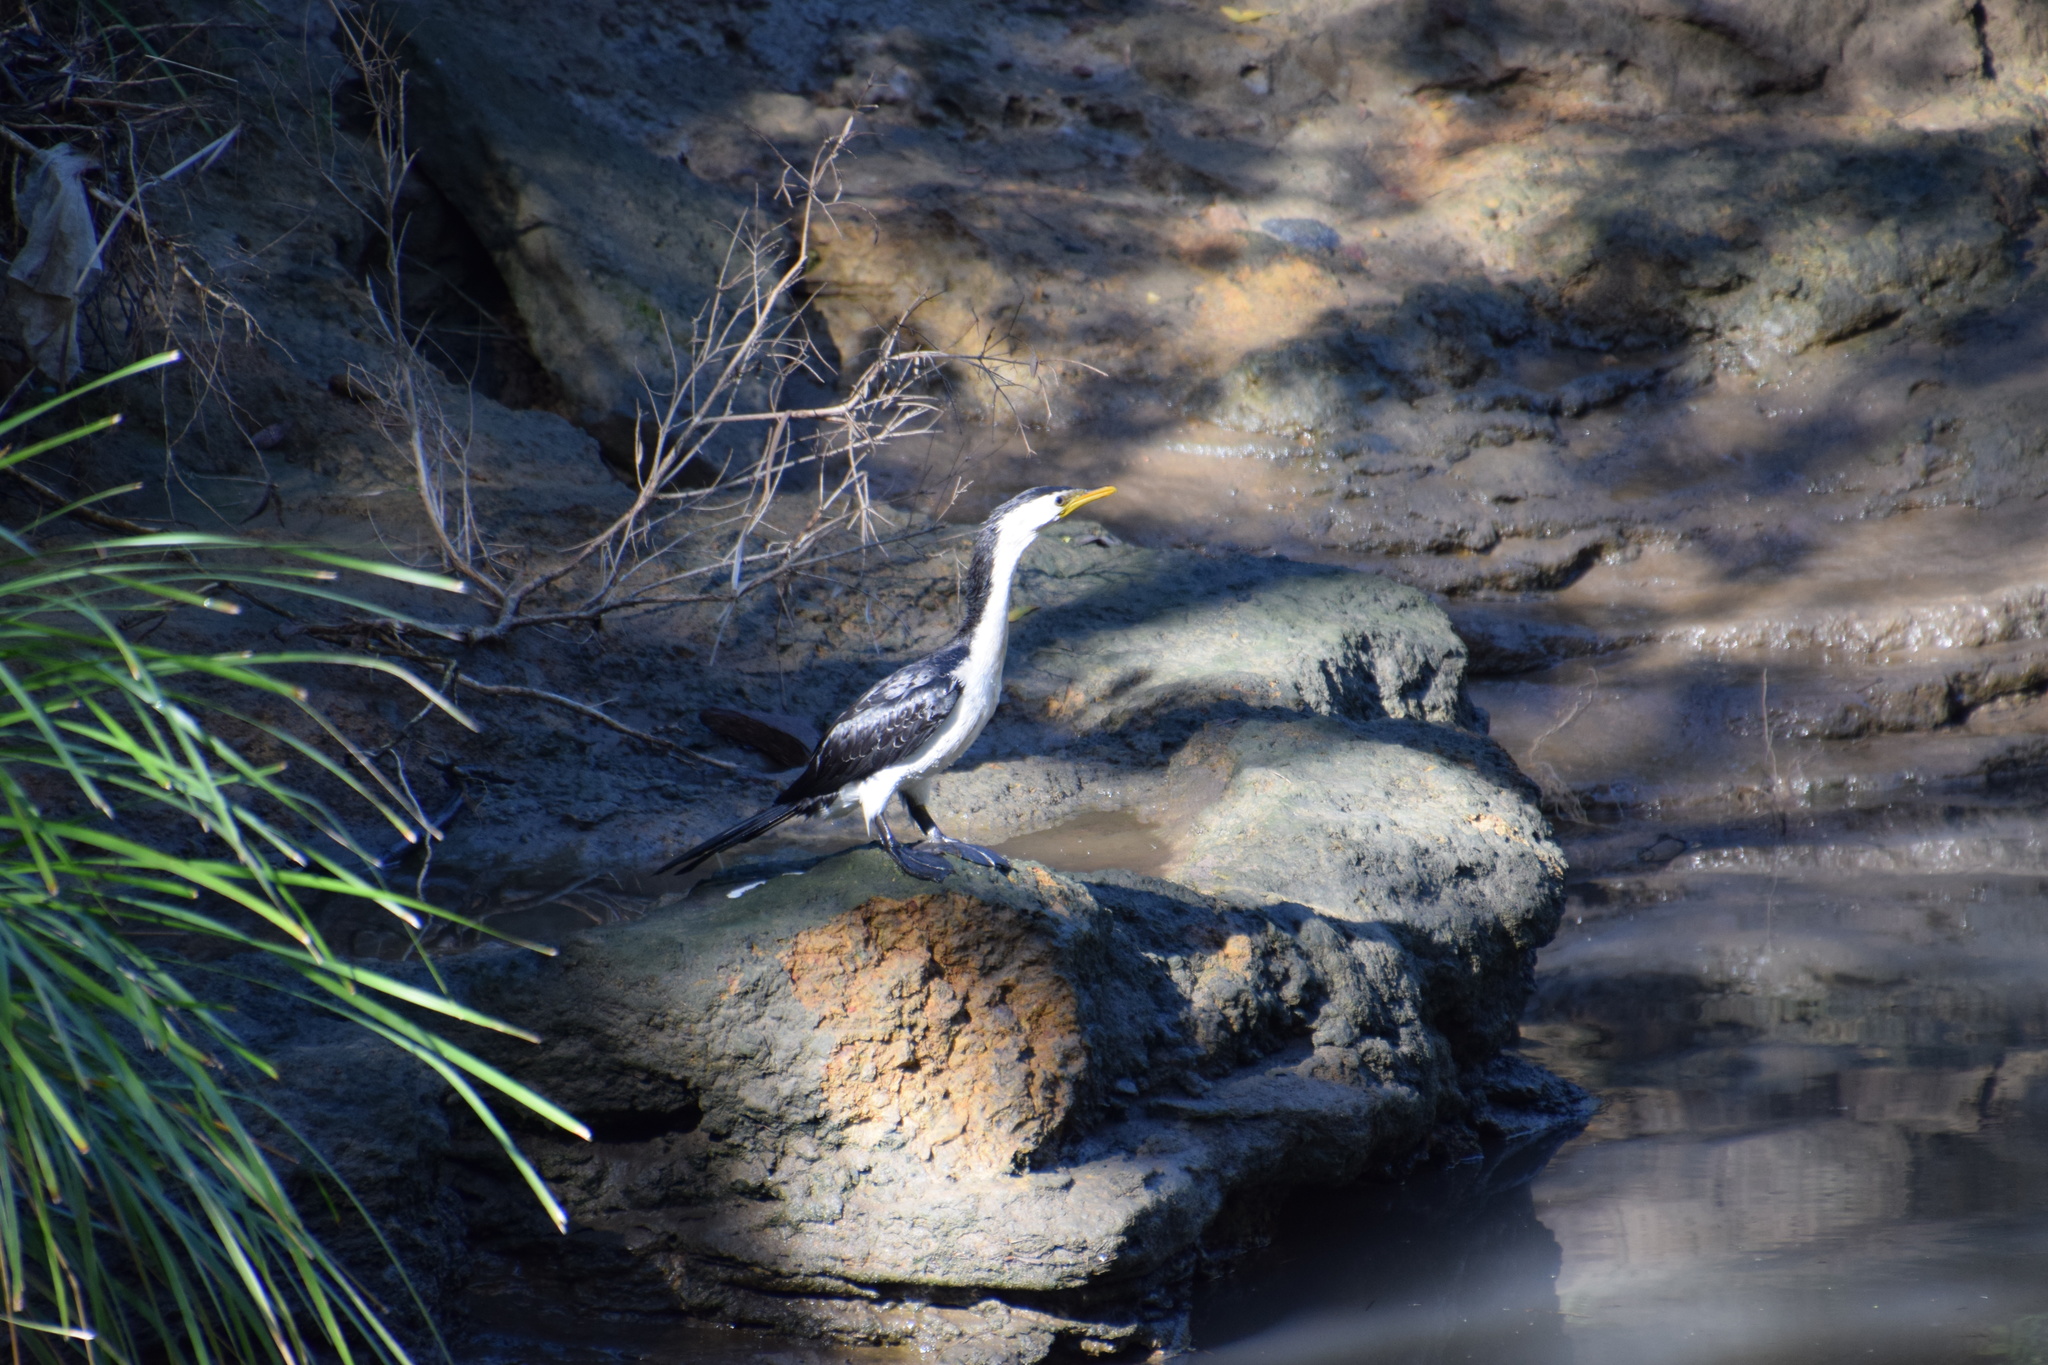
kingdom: Animalia
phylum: Chordata
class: Aves
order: Suliformes
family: Phalacrocoracidae
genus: Microcarbo
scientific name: Microcarbo melanoleucos
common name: Little pied cormorant
